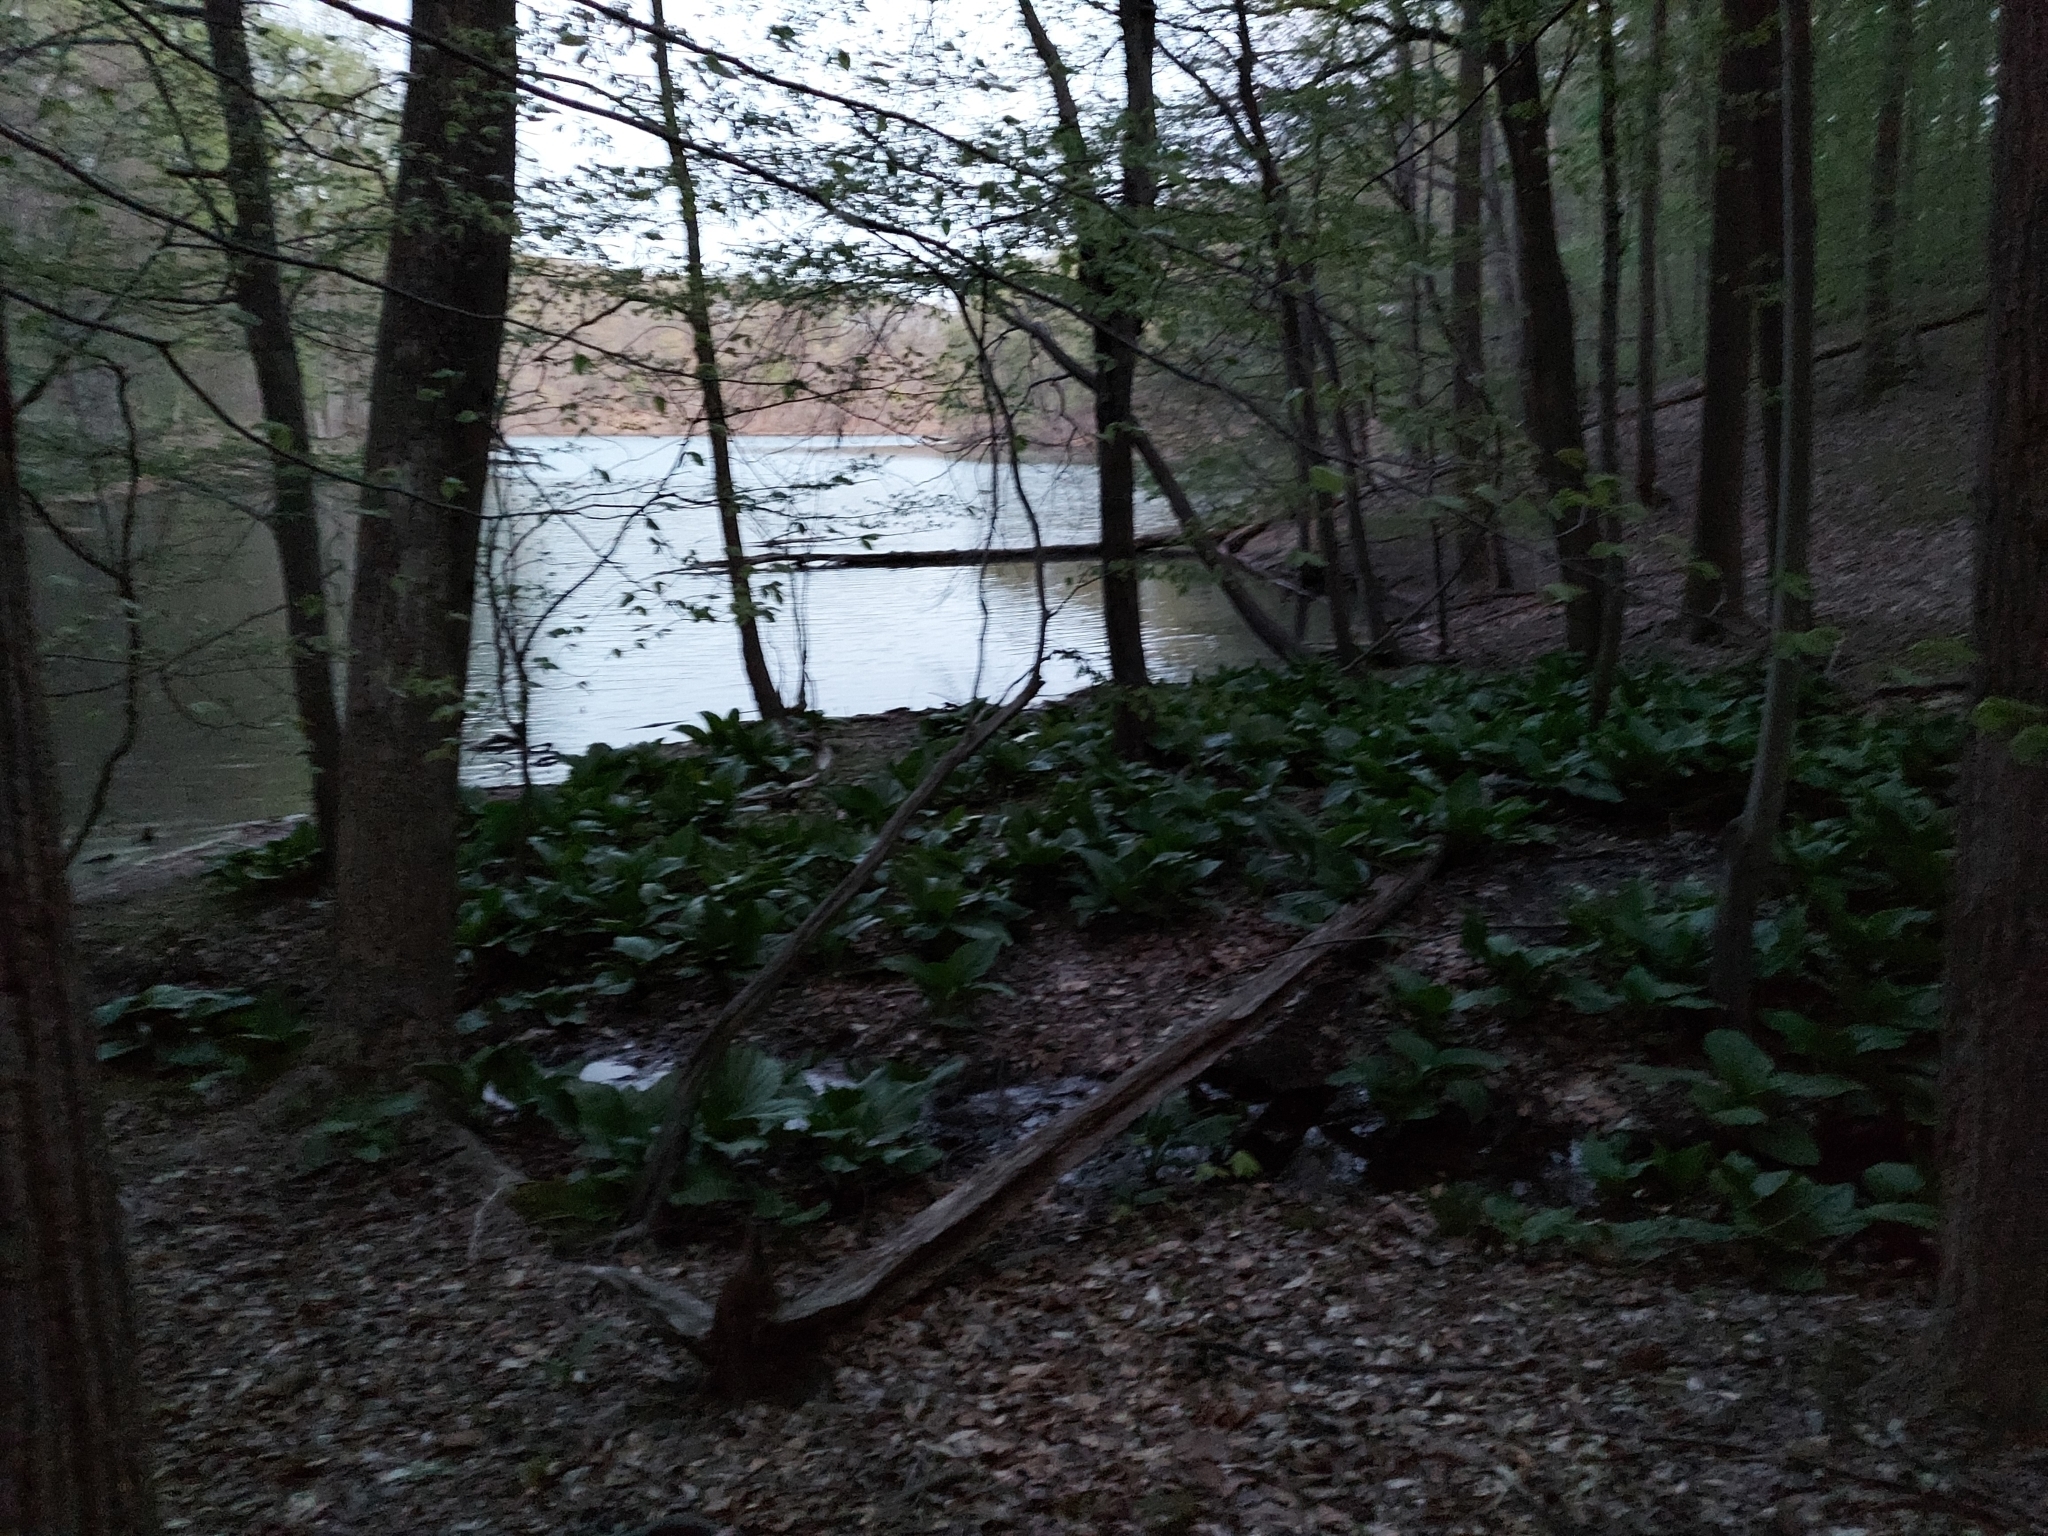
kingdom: Plantae
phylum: Tracheophyta
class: Liliopsida
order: Alismatales
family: Araceae
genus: Symplocarpus
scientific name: Symplocarpus foetidus
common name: Eastern skunk cabbage
